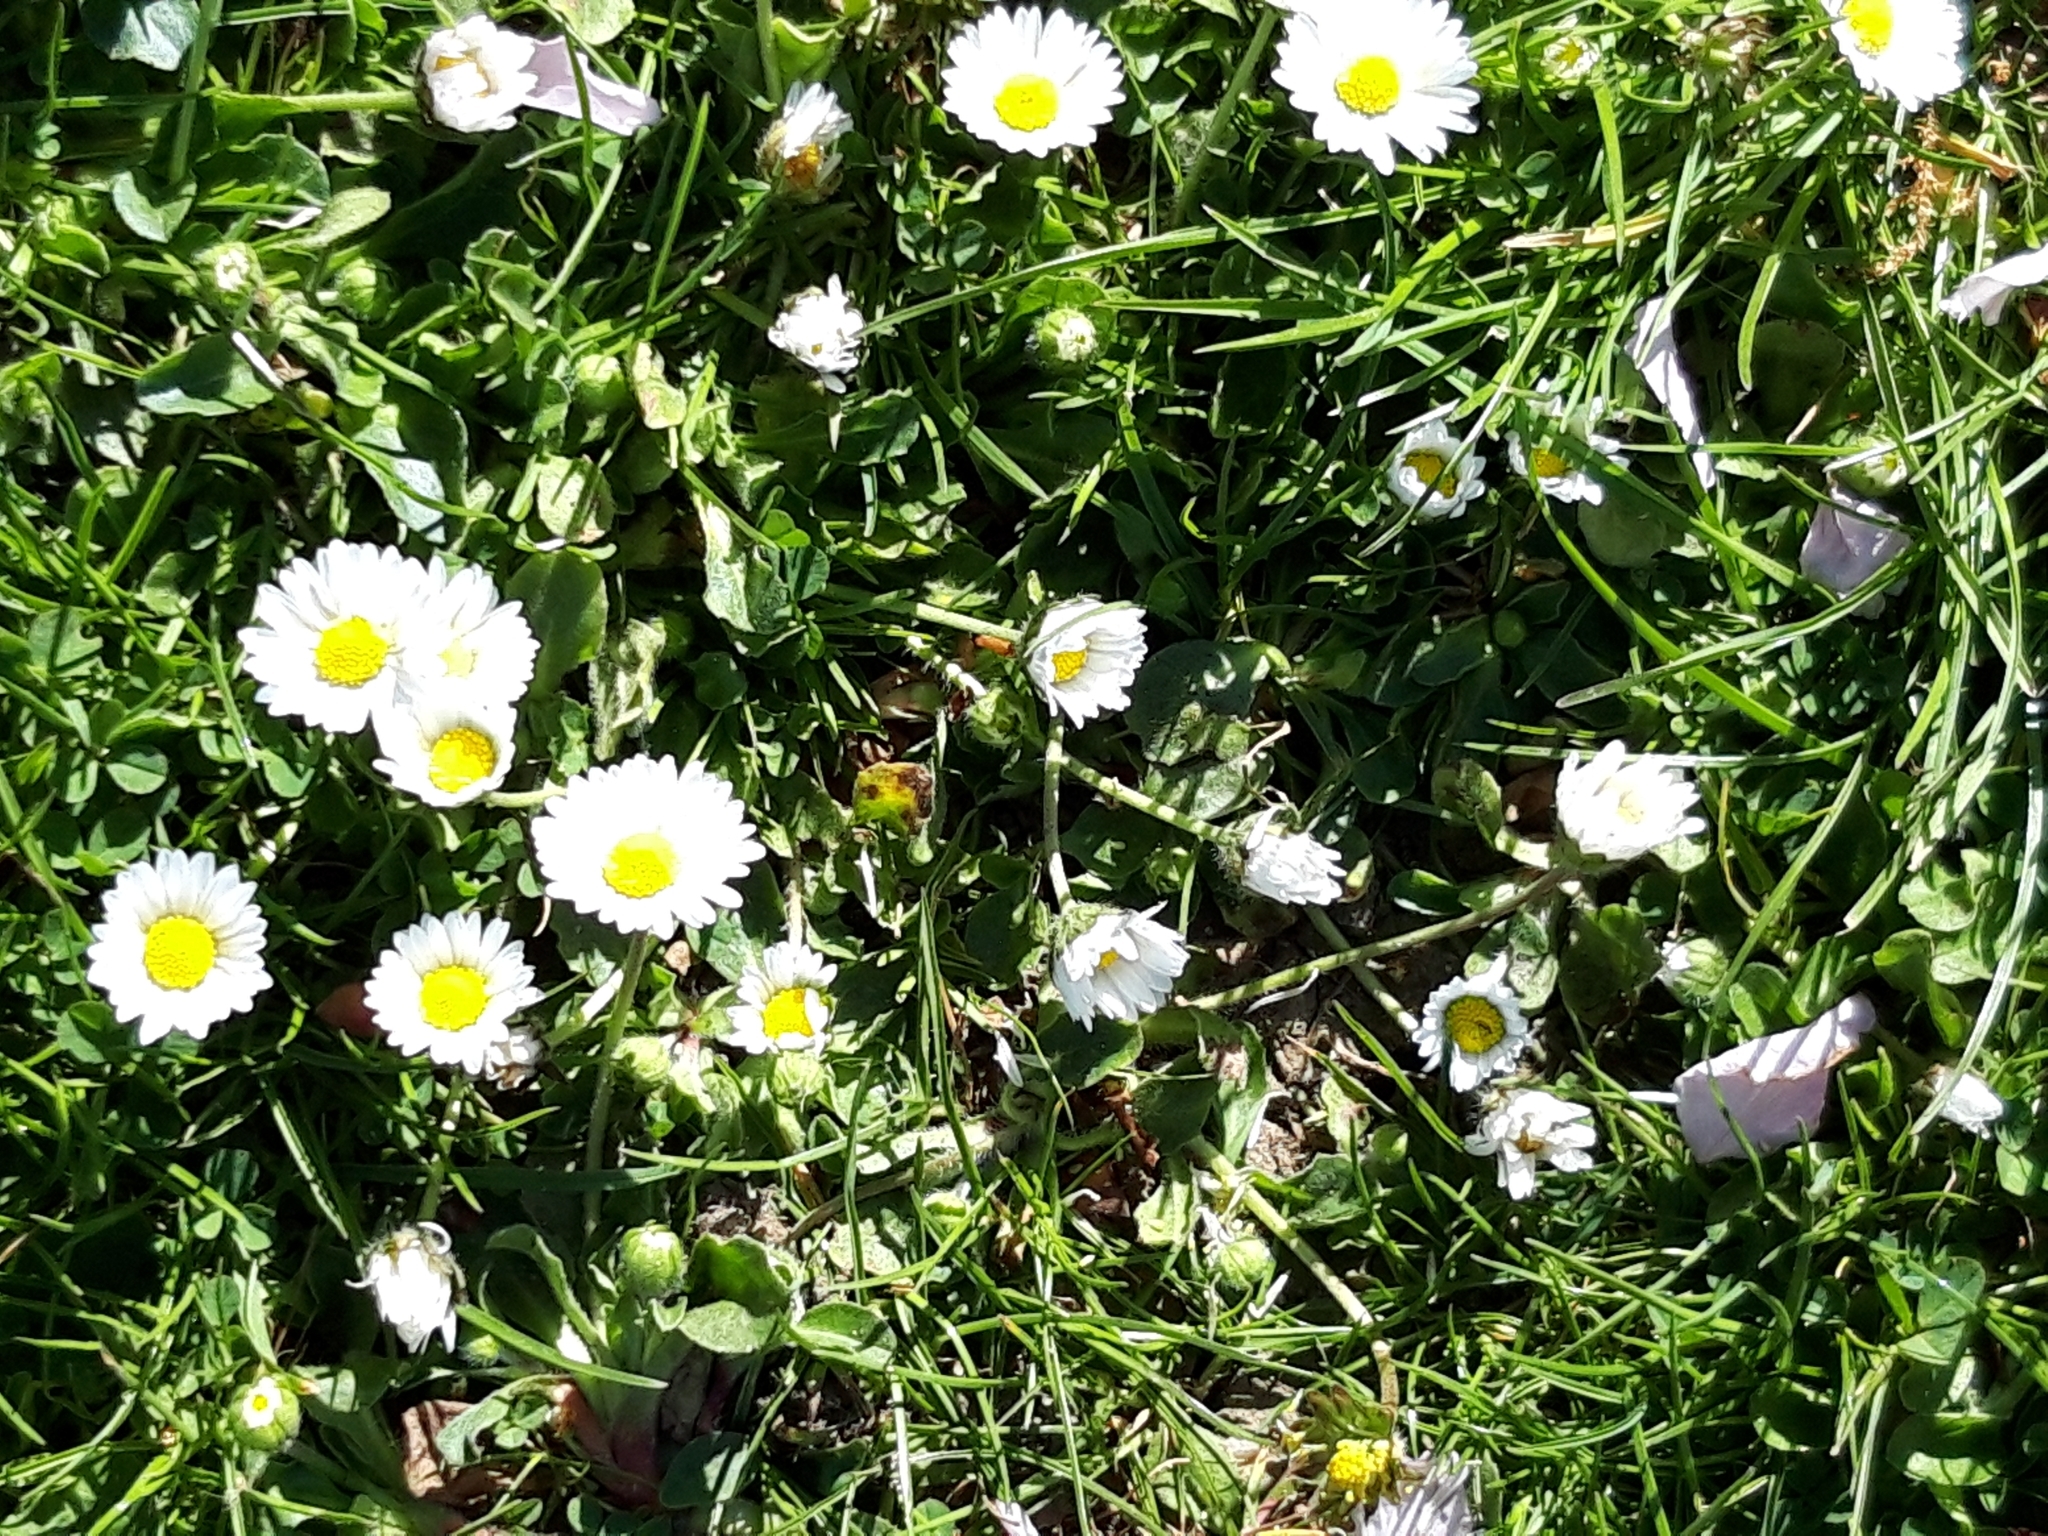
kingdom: Plantae
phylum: Tracheophyta
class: Magnoliopsida
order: Asterales
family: Asteraceae
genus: Bellis
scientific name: Bellis perennis
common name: Lawndaisy
